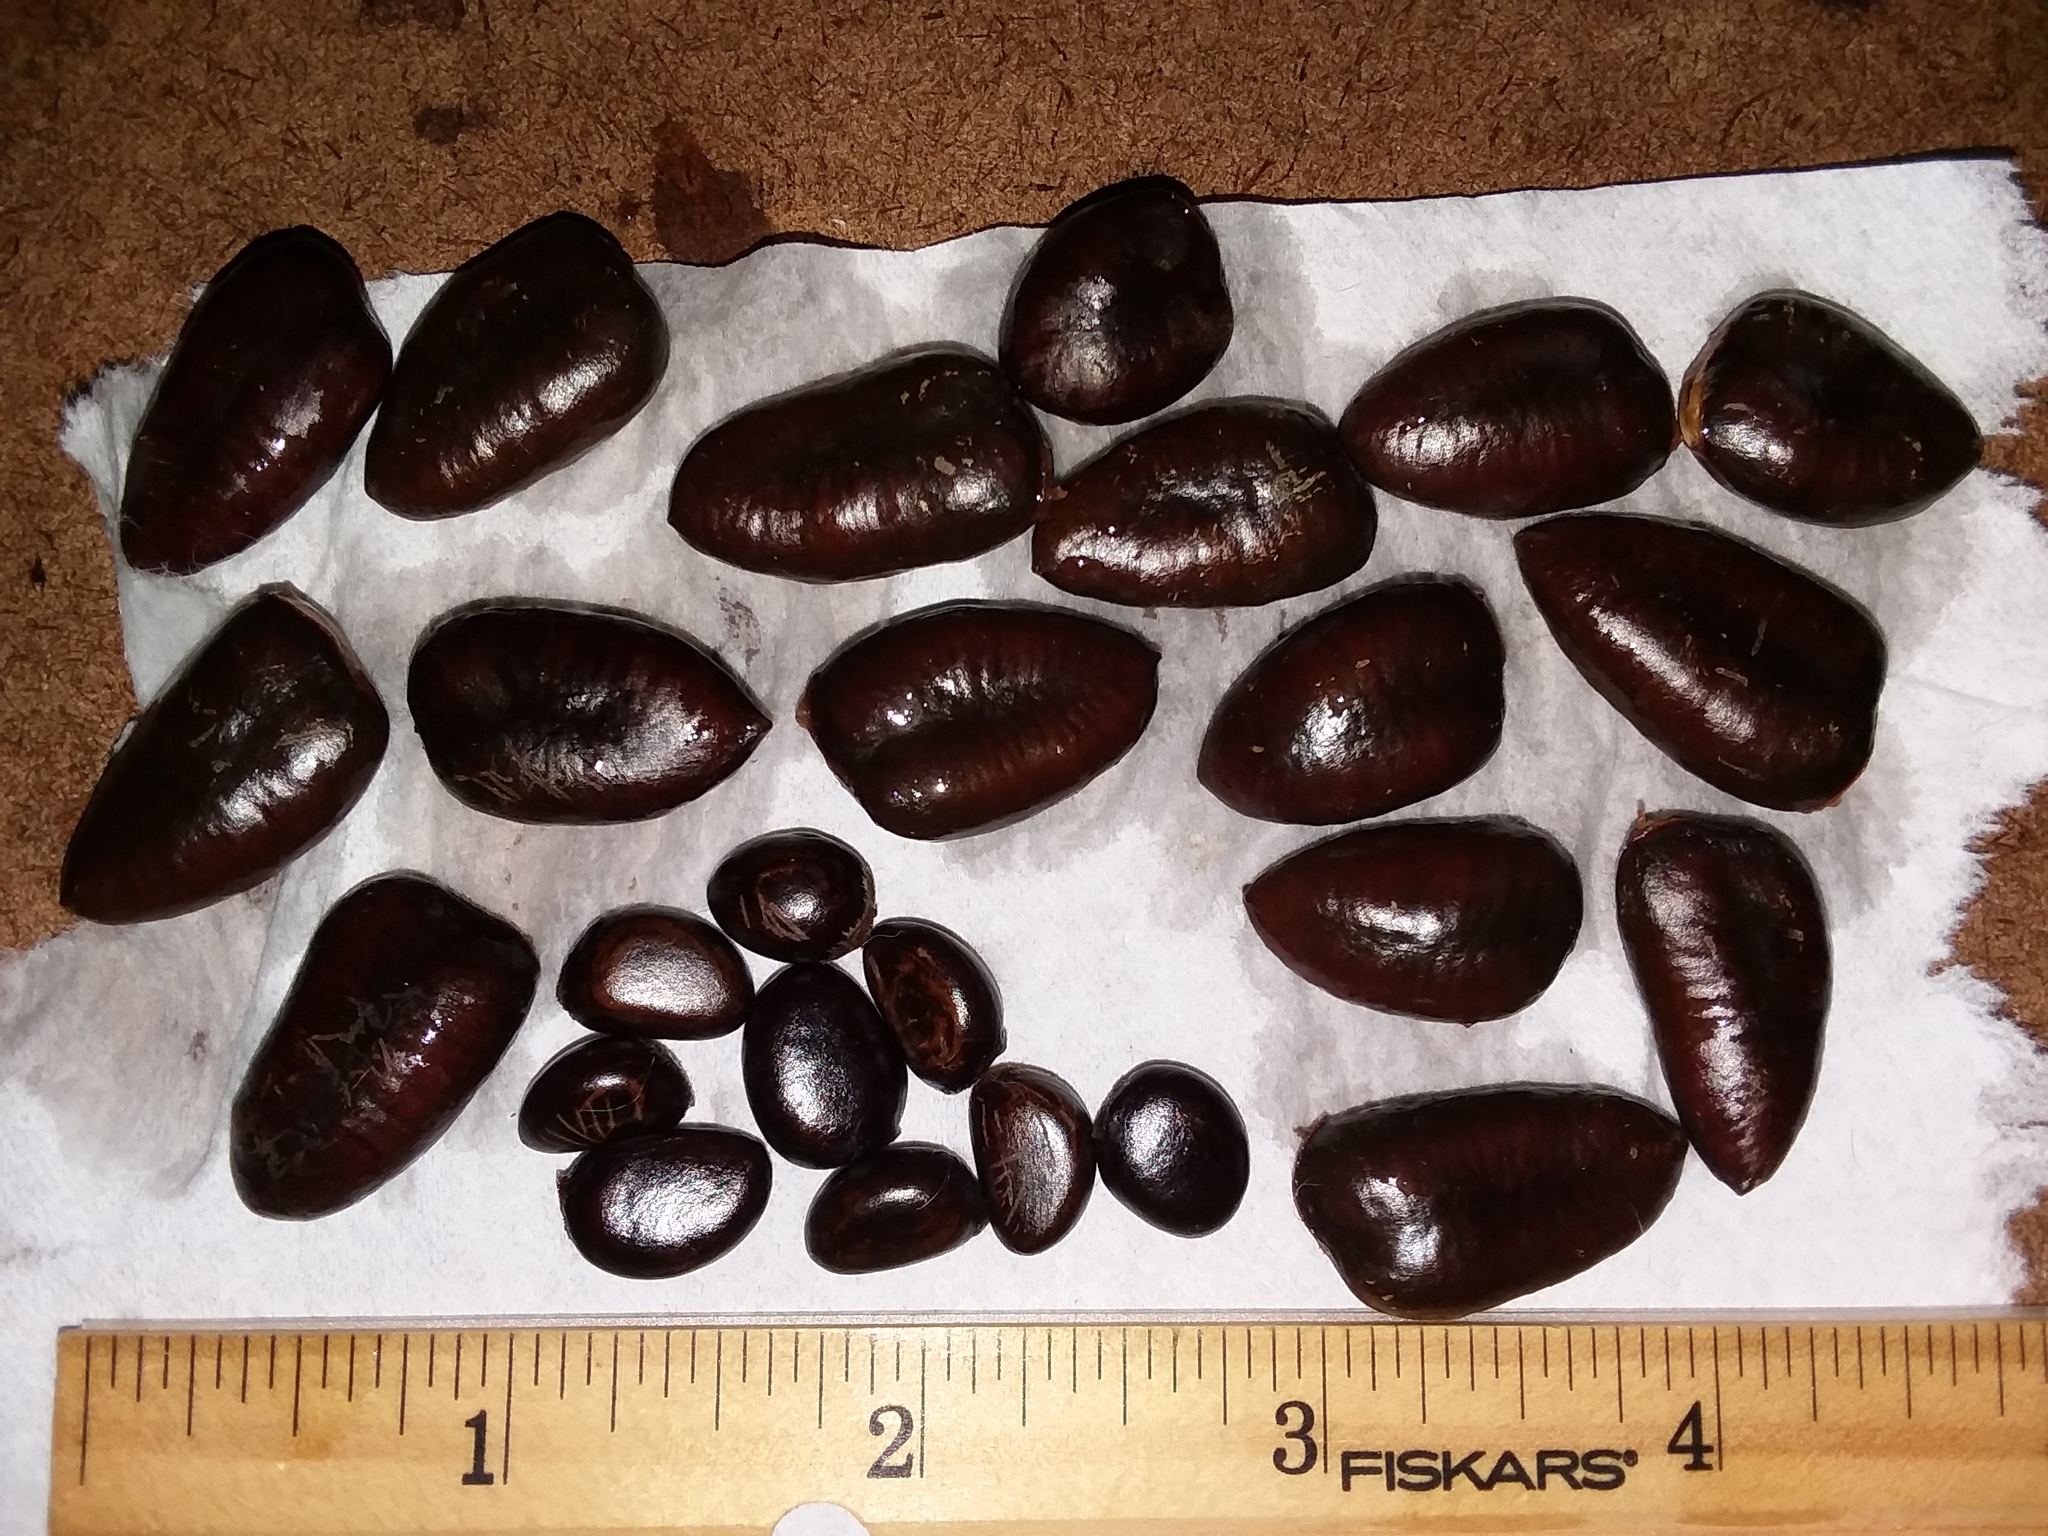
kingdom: Plantae
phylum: Tracheophyta
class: Magnoliopsida
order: Magnoliales
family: Annonaceae
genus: Asimina
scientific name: Asimina parviflora
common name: Dwarf pawpaw
